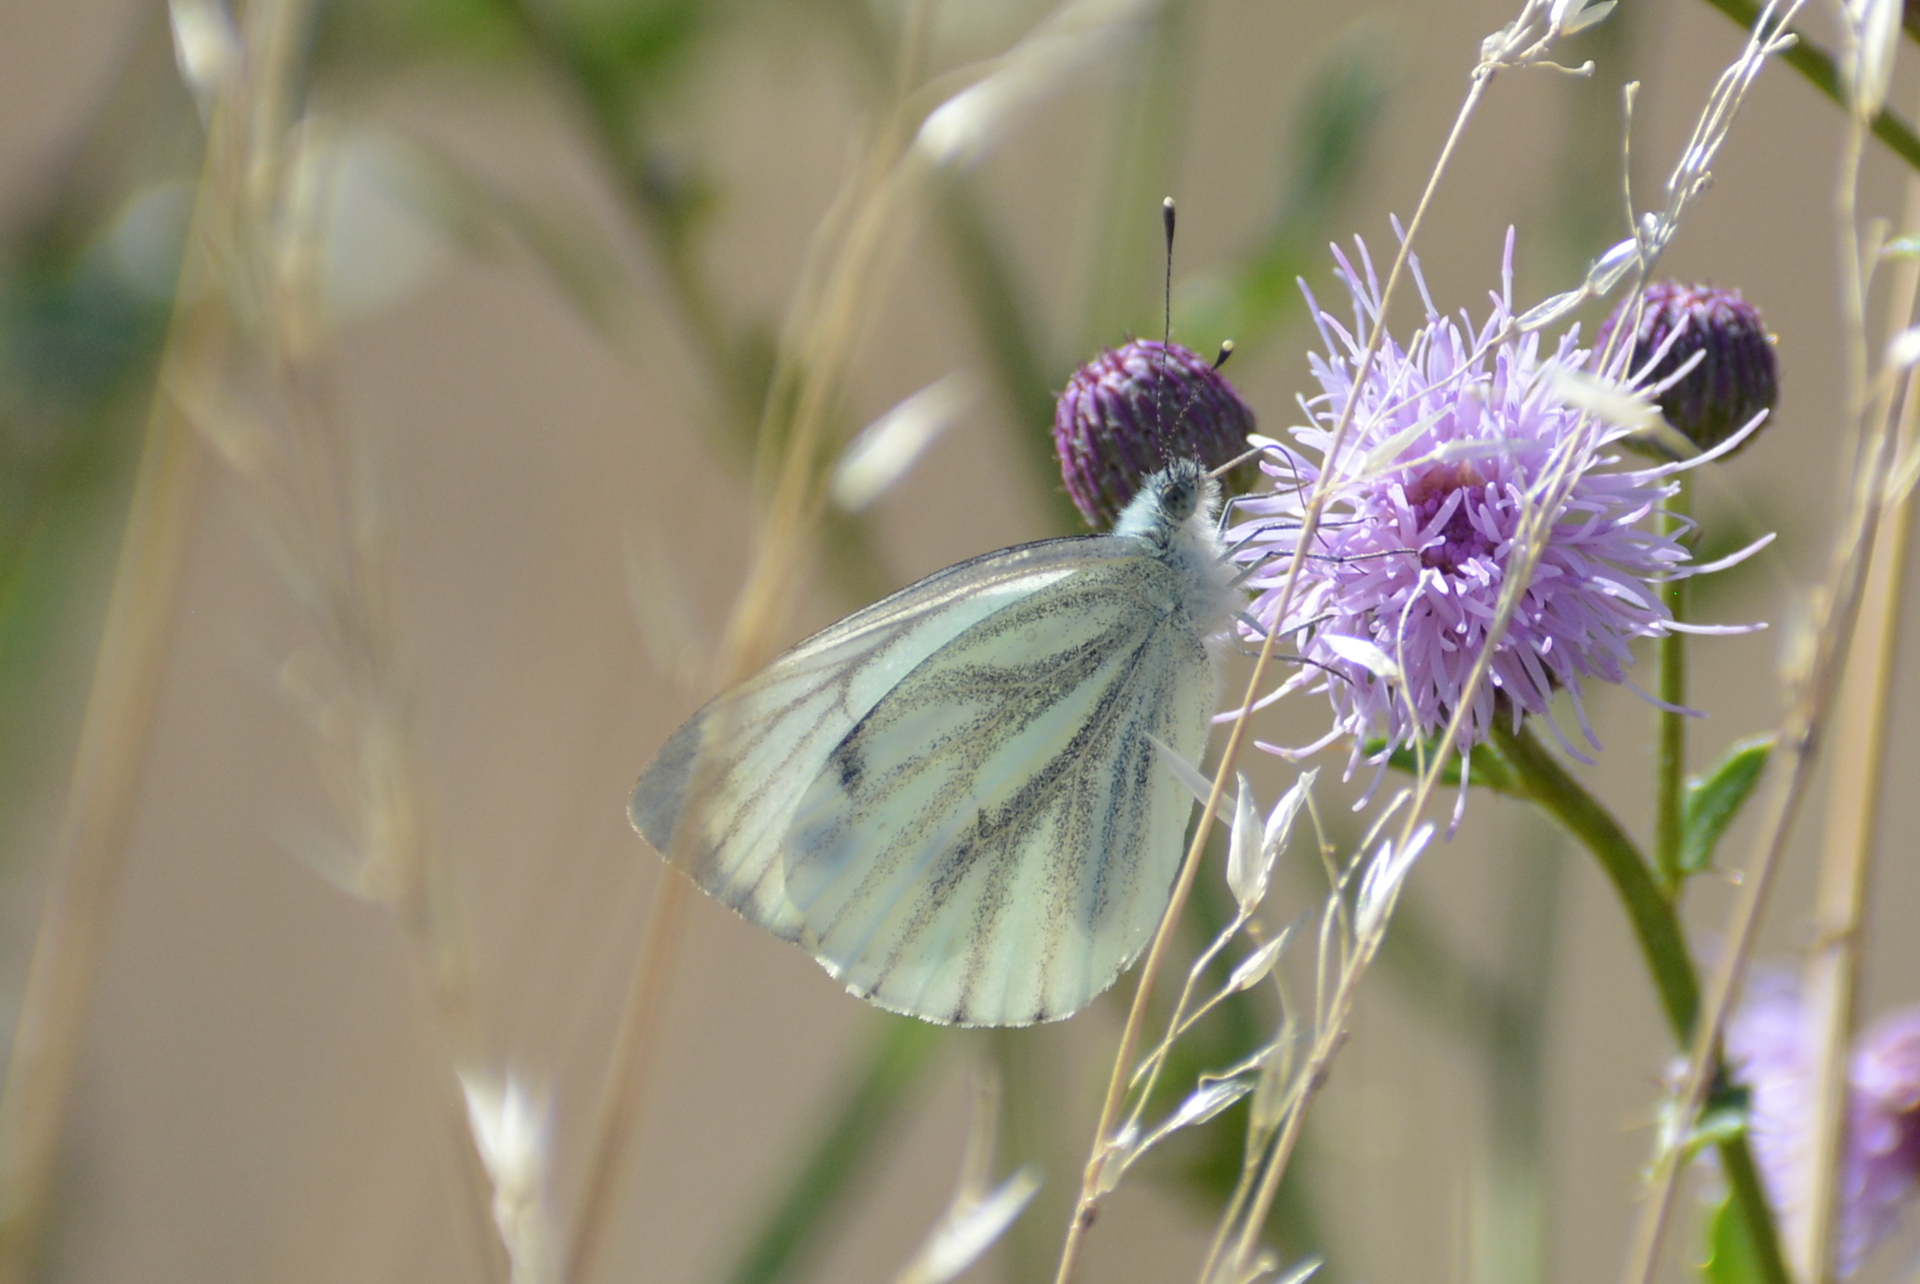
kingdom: Animalia
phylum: Arthropoda
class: Insecta
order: Lepidoptera
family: Pieridae
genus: Pieris
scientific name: Pieris napi
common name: Green-veined white
